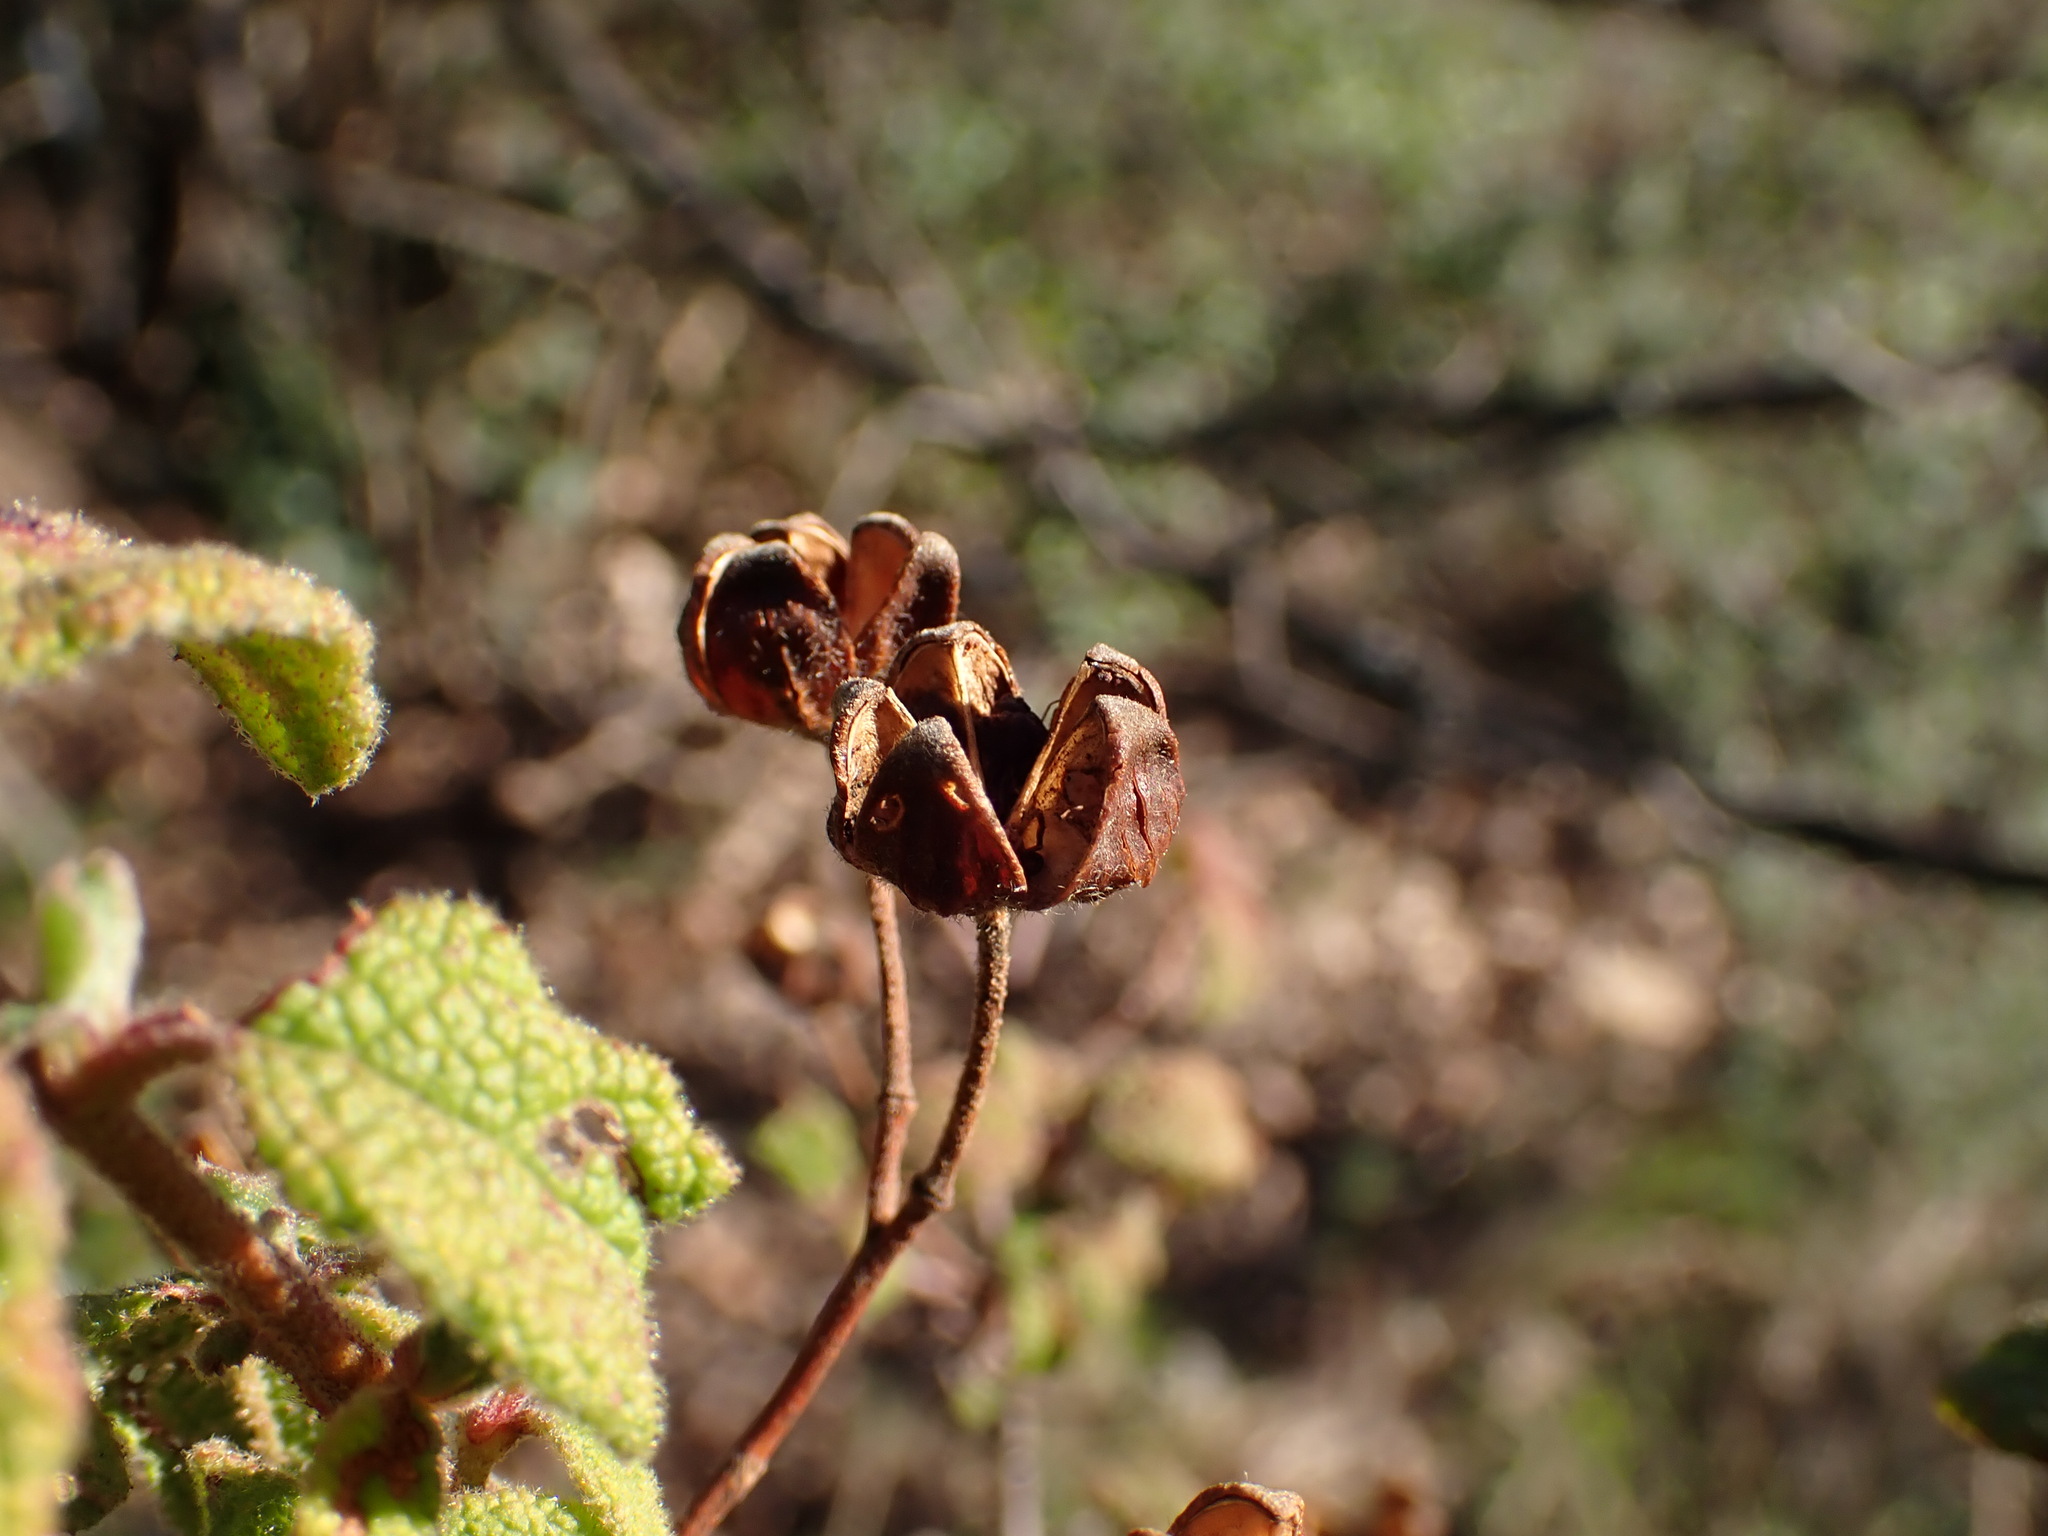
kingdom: Plantae
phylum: Tracheophyta
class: Magnoliopsida
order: Malvales
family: Cistaceae
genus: Cistus
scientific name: Cistus salviifolius
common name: Salvia cistus
